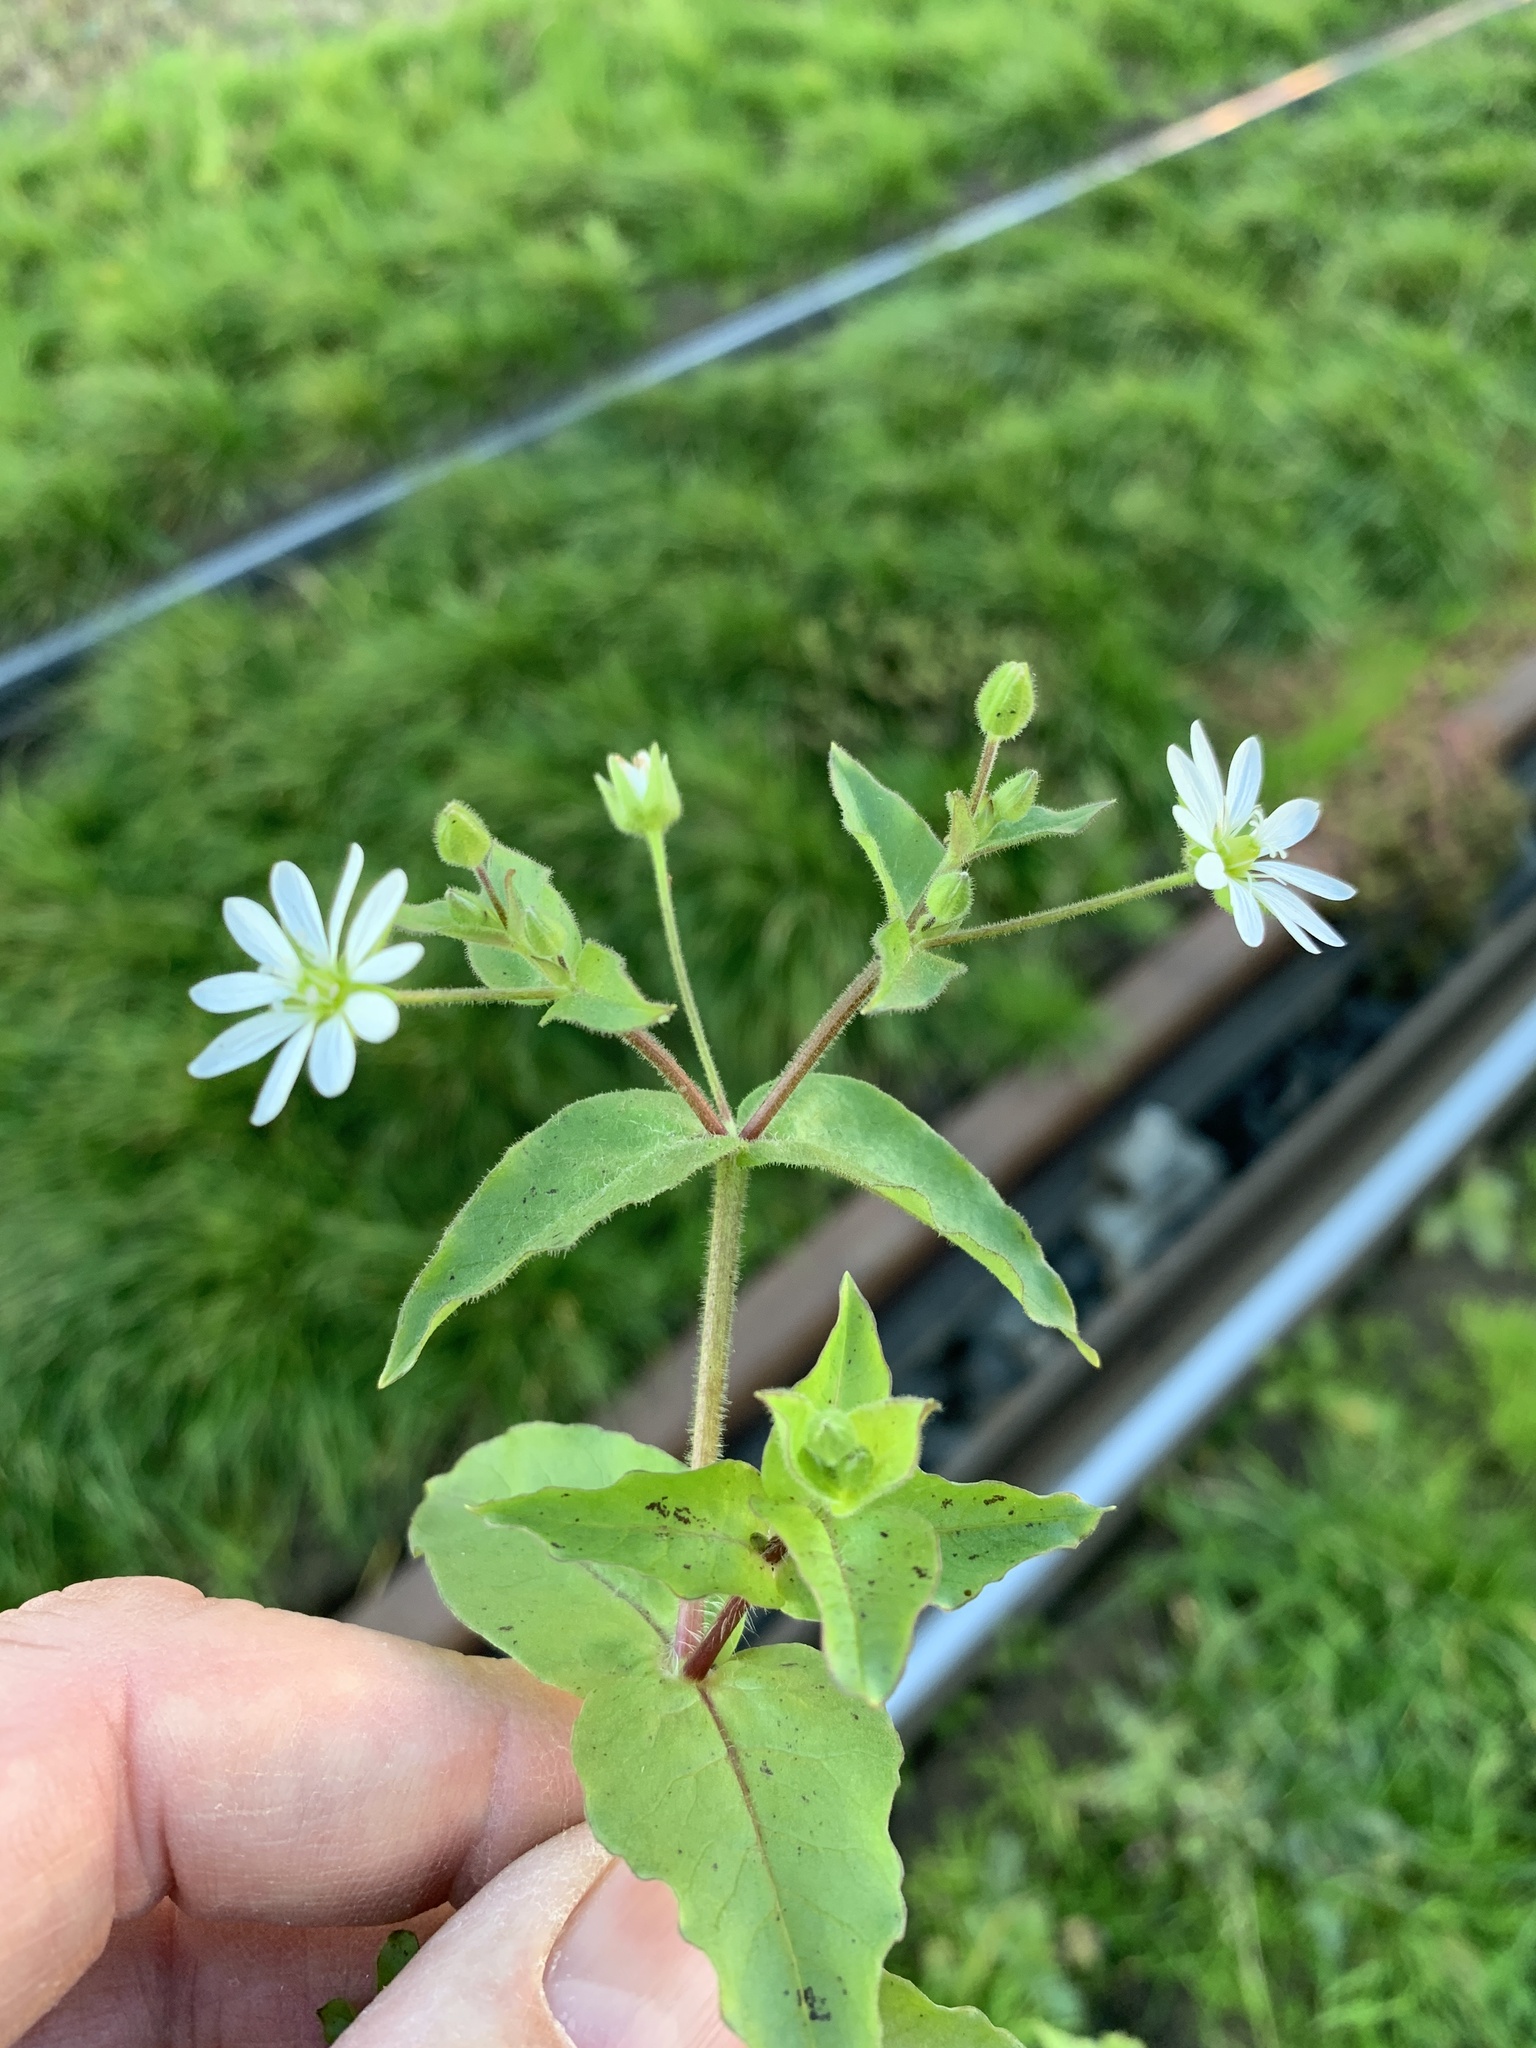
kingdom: Plantae
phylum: Tracheophyta
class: Magnoliopsida
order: Caryophyllales
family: Caryophyllaceae
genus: Stellaria
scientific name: Stellaria aquatica
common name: Water chickweed
